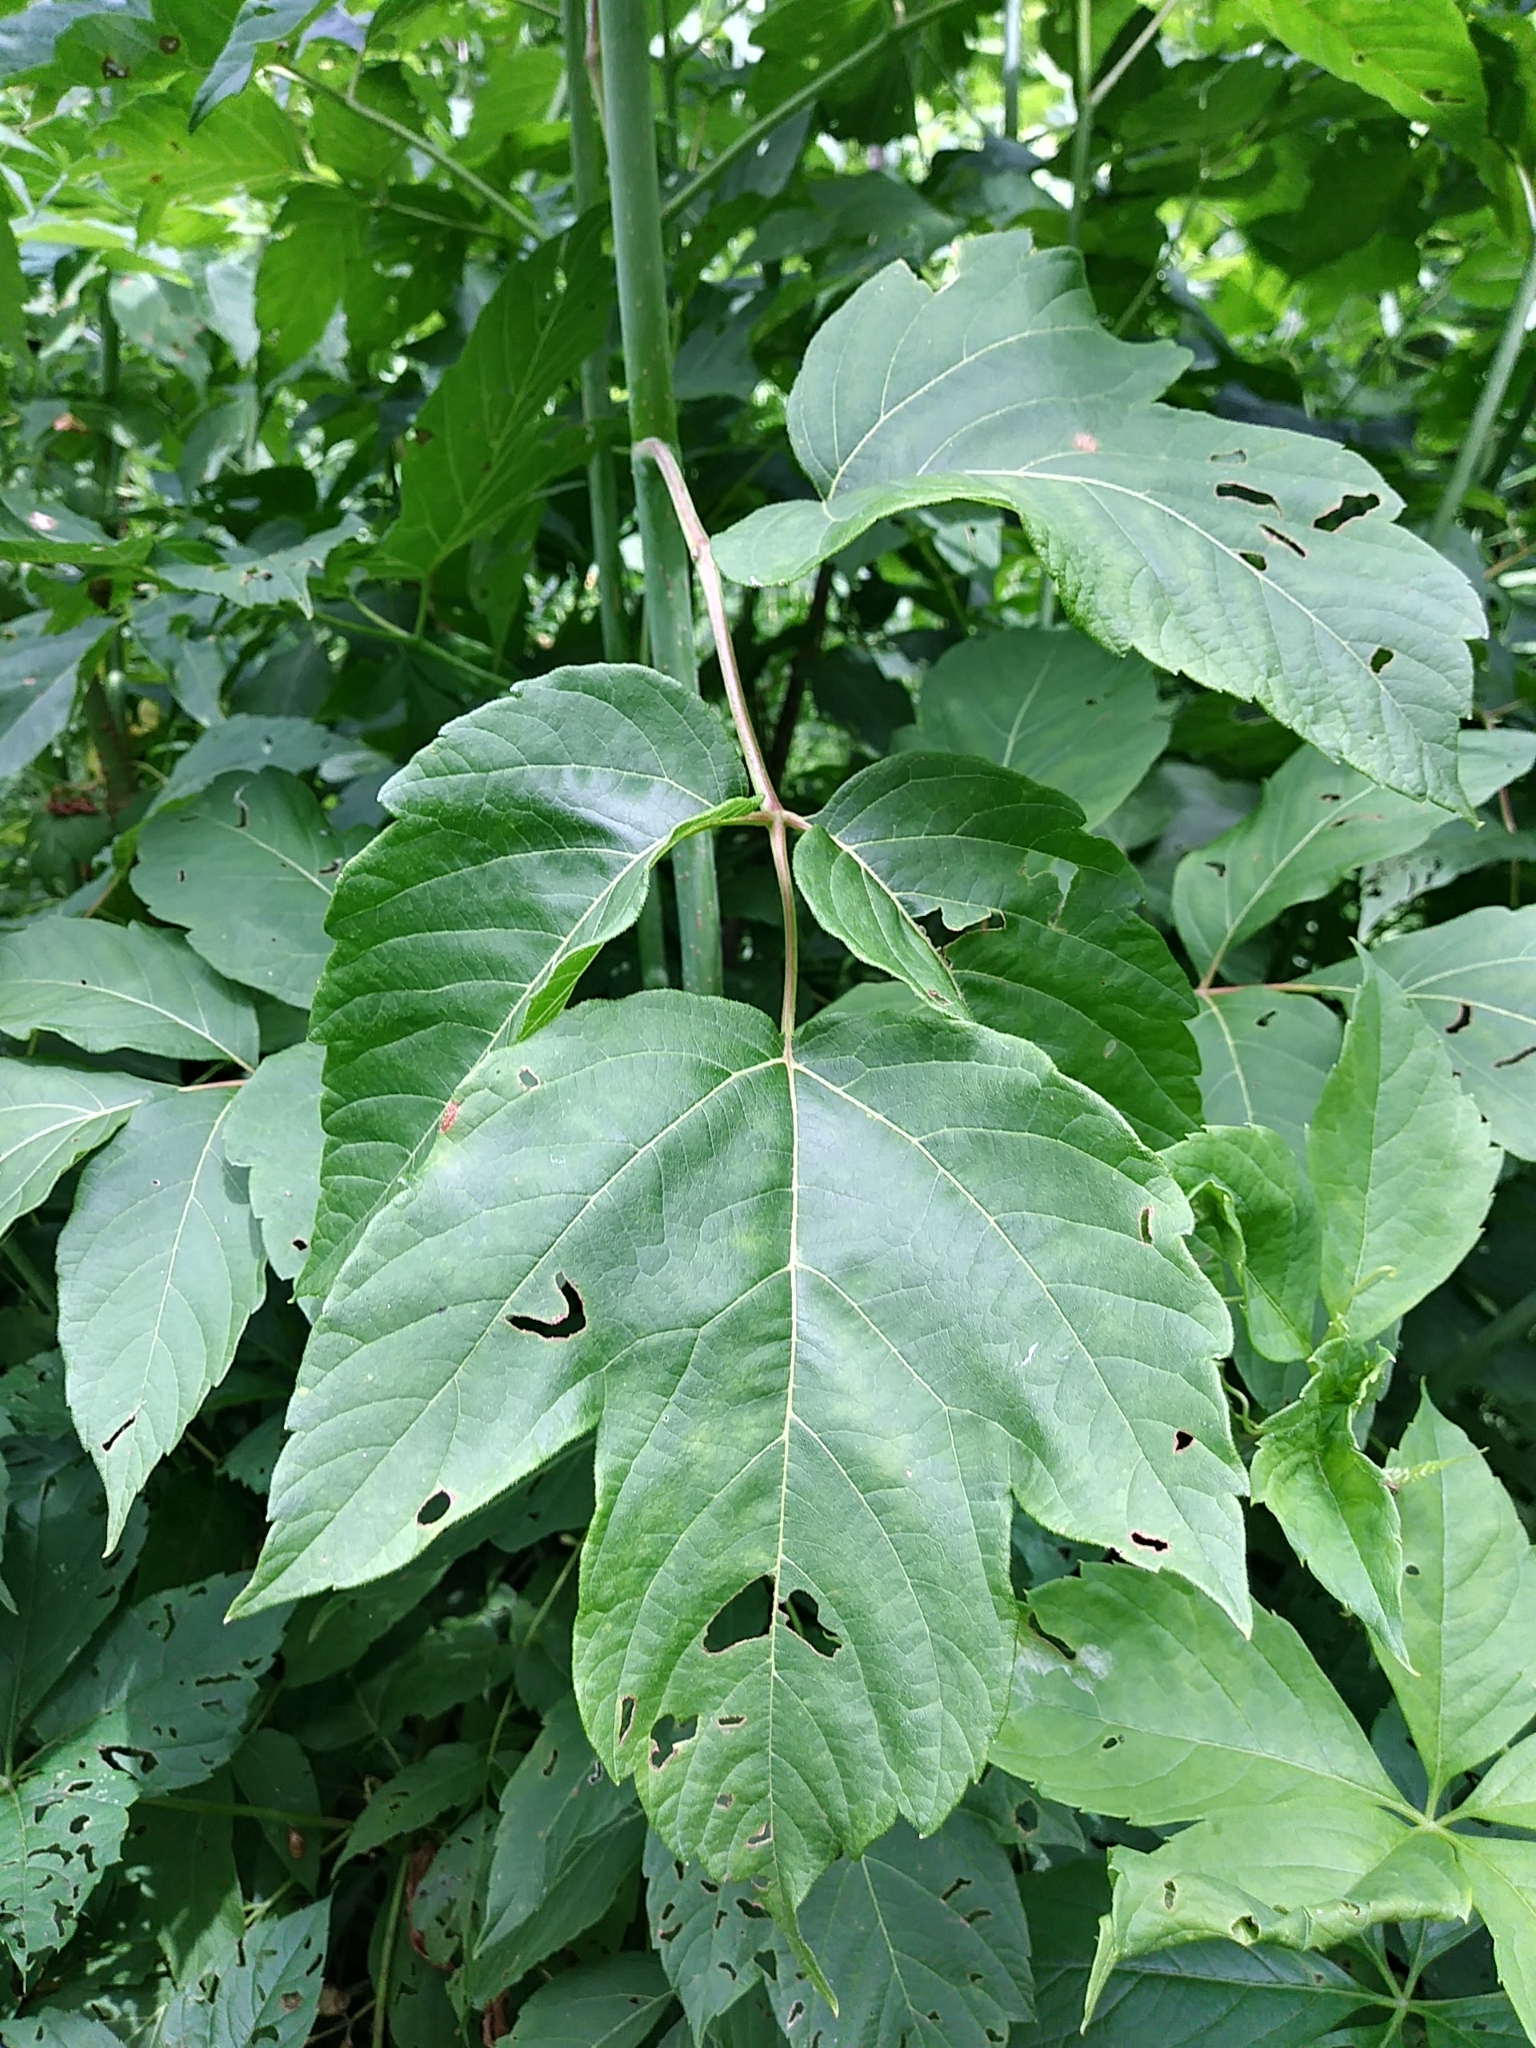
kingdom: Plantae
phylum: Tracheophyta
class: Magnoliopsida
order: Sapindales
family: Sapindaceae
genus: Acer
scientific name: Acer negundo
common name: Ashleaf maple
